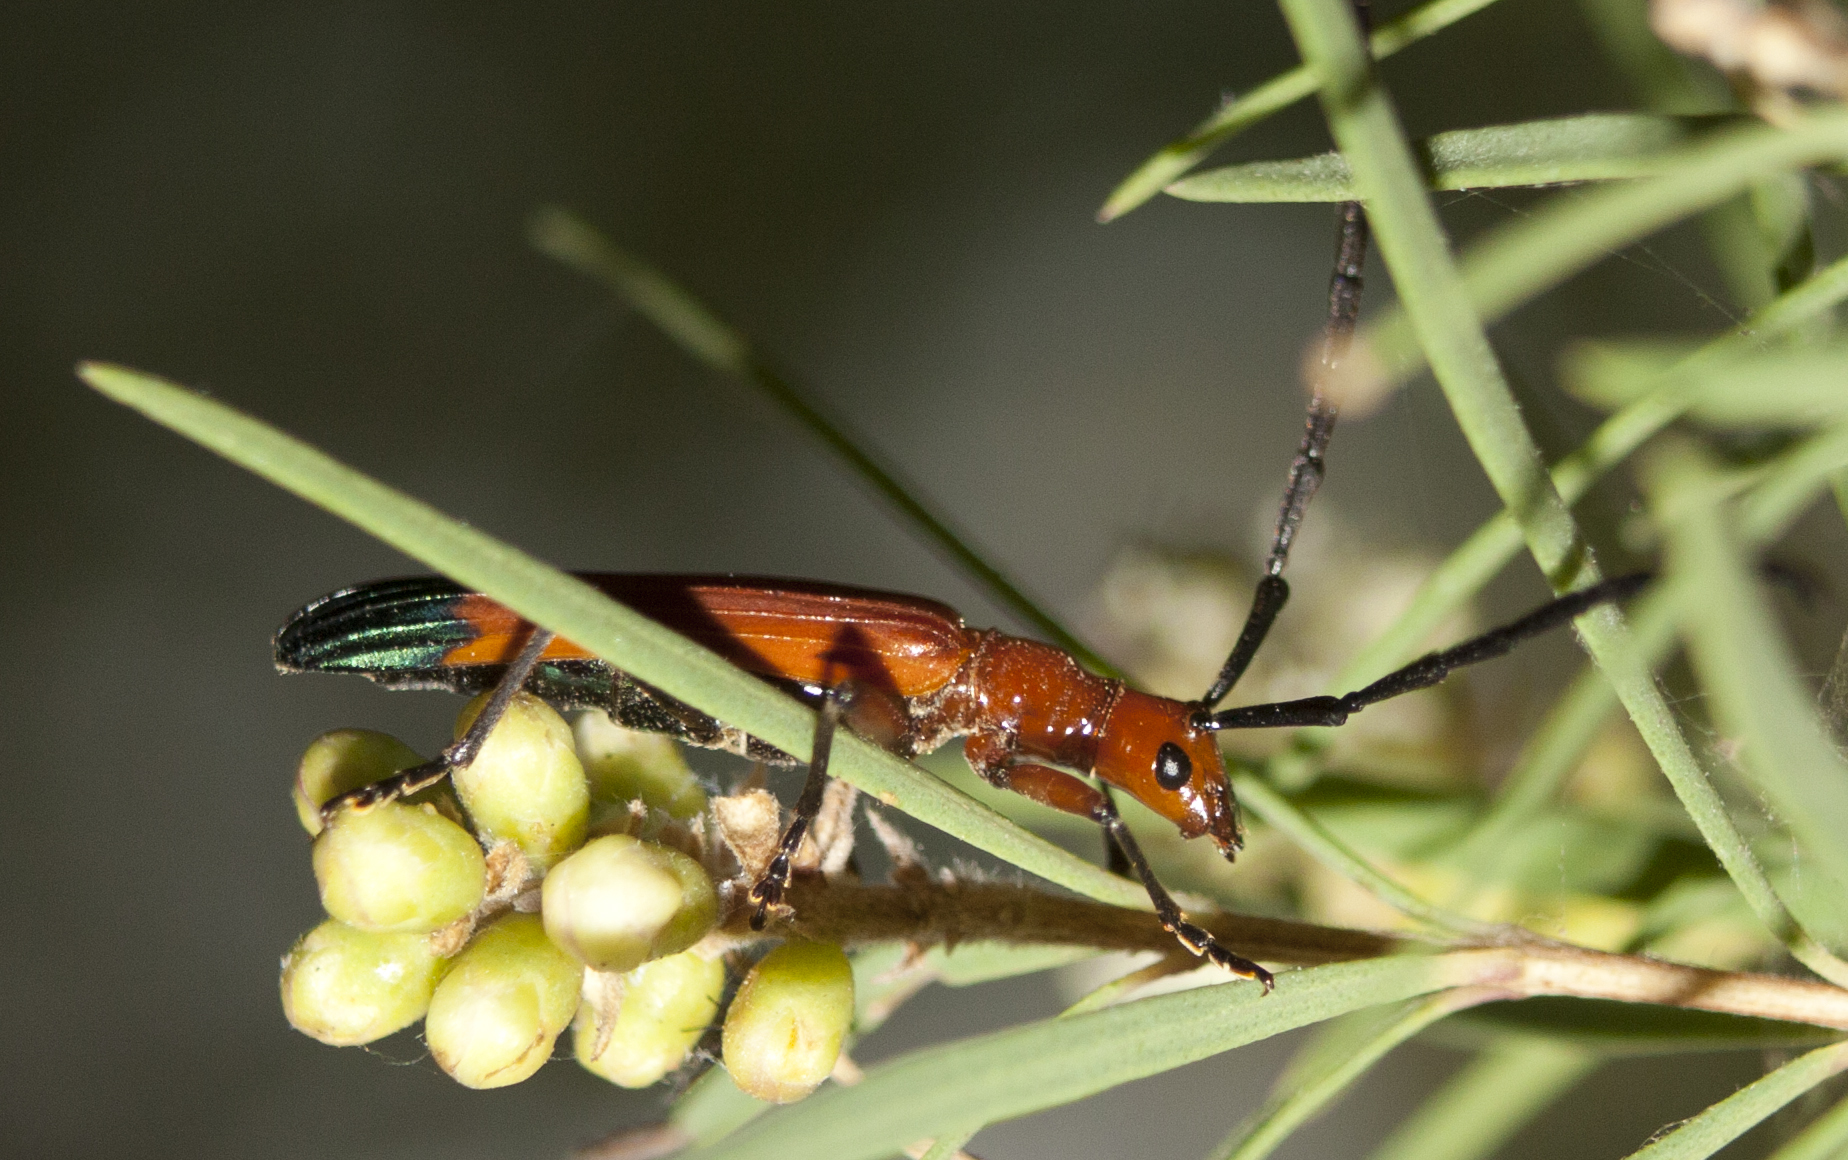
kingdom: Animalia
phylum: Arthropoda
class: Insecta
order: Coleoptera
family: Cerambycidae
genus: Stenoderus
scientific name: Stenoderus ostricilla
